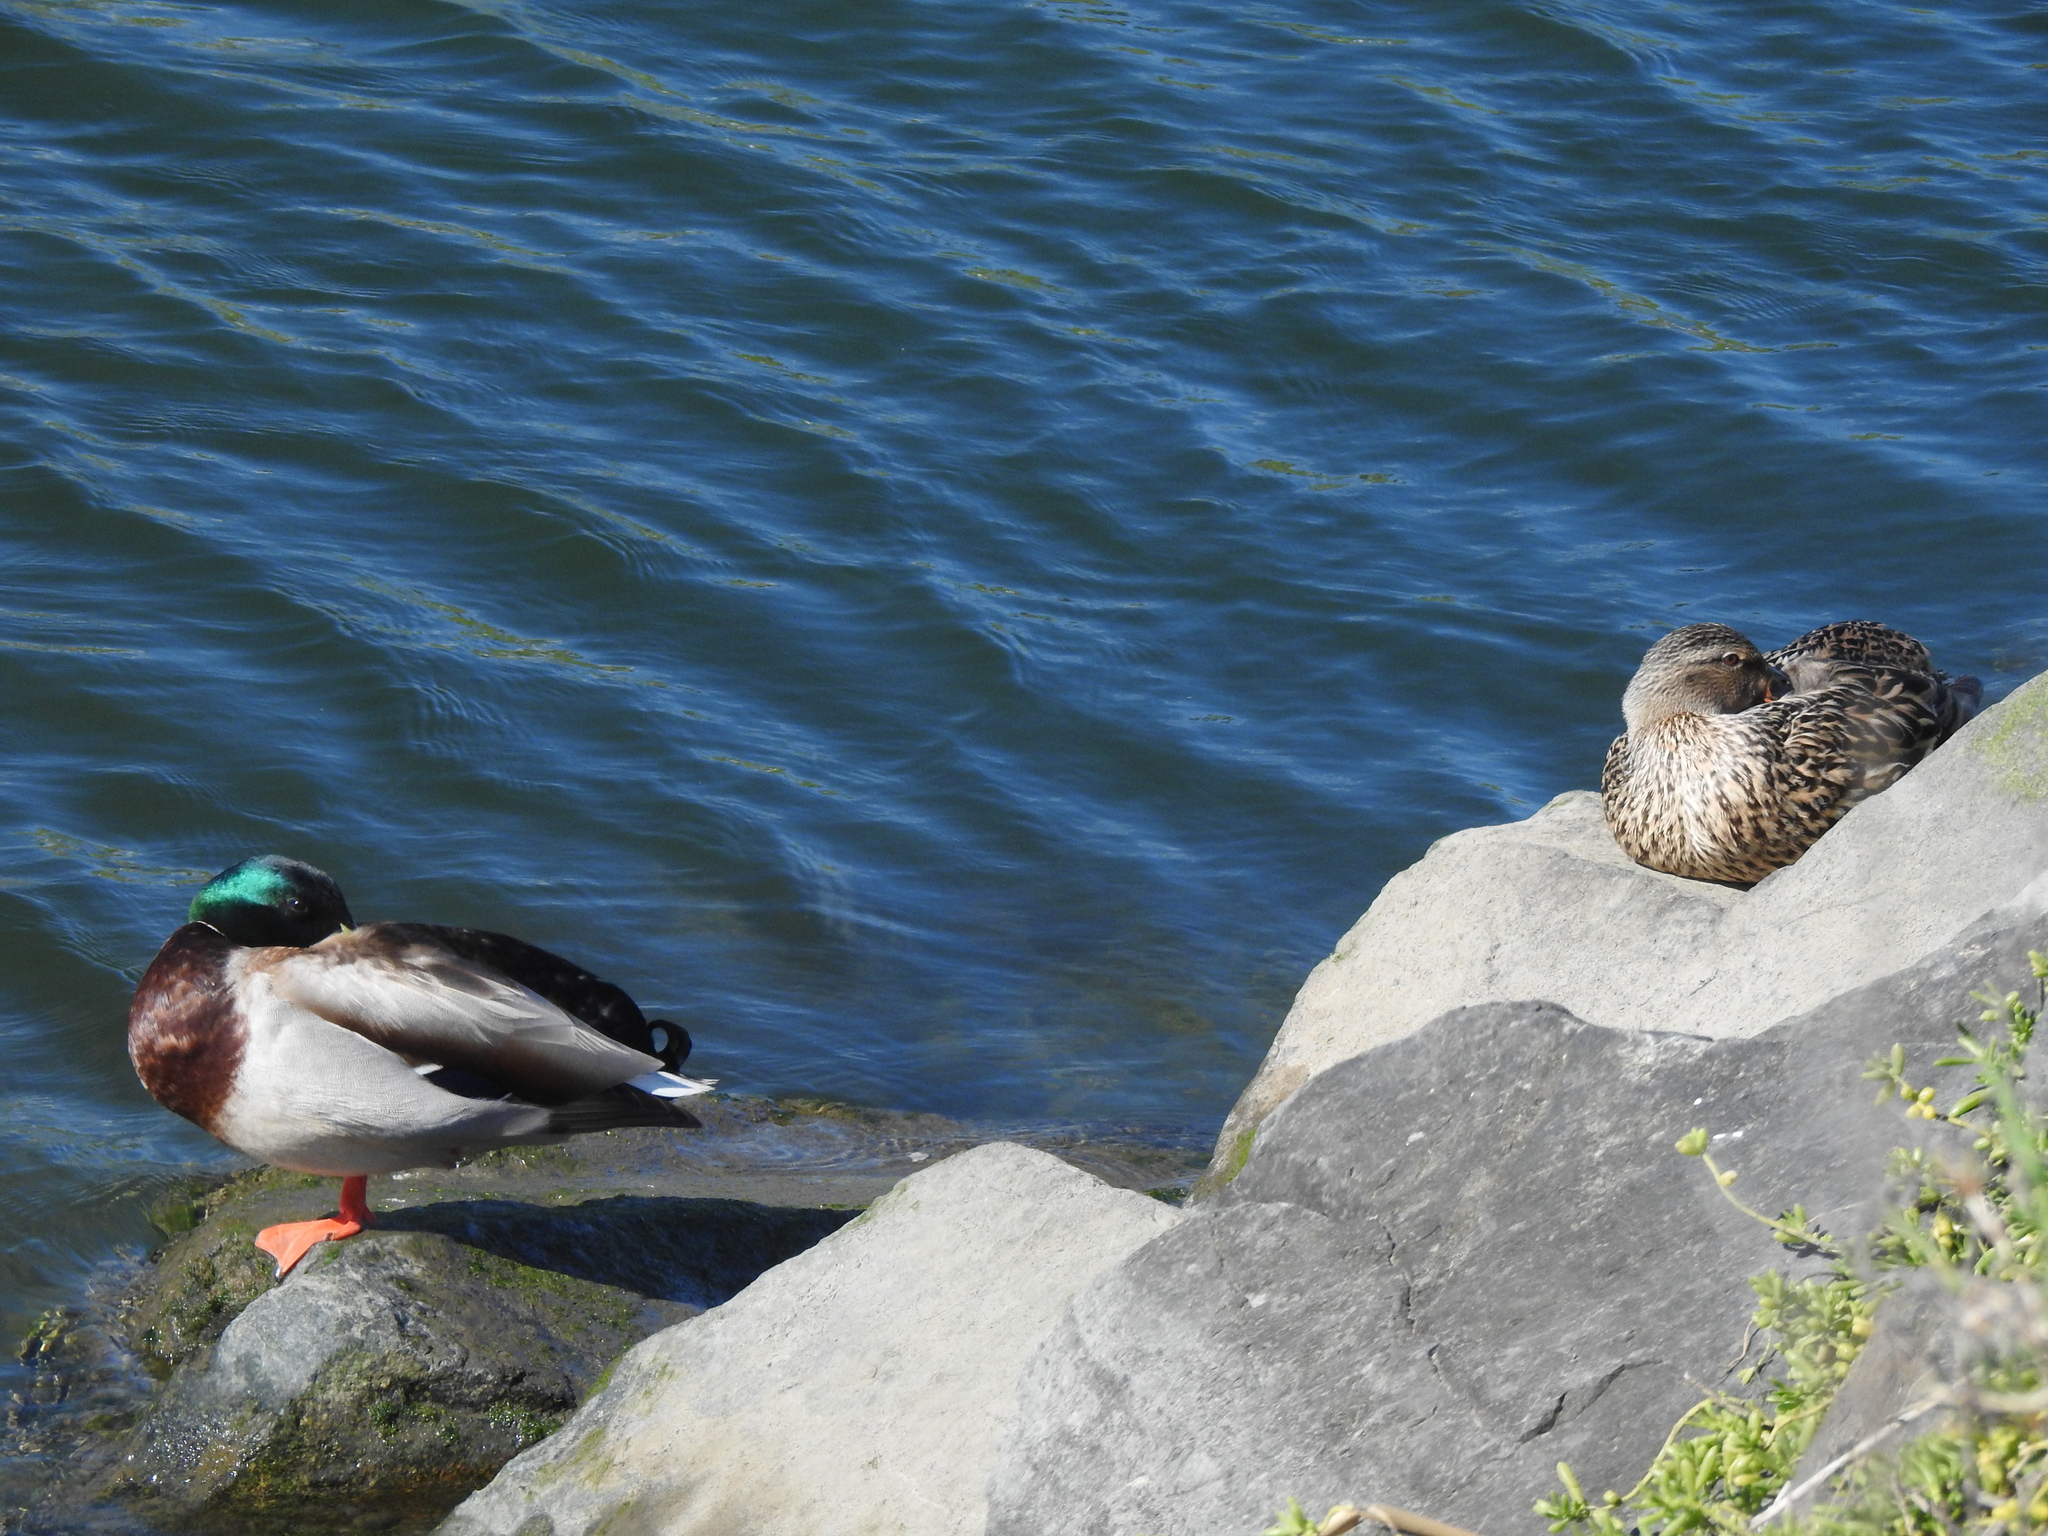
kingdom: Animalia
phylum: Chordata
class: Aves
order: Anseriformes
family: Anatidae
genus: Anas
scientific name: Anas platyrhynchos
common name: Mallard
